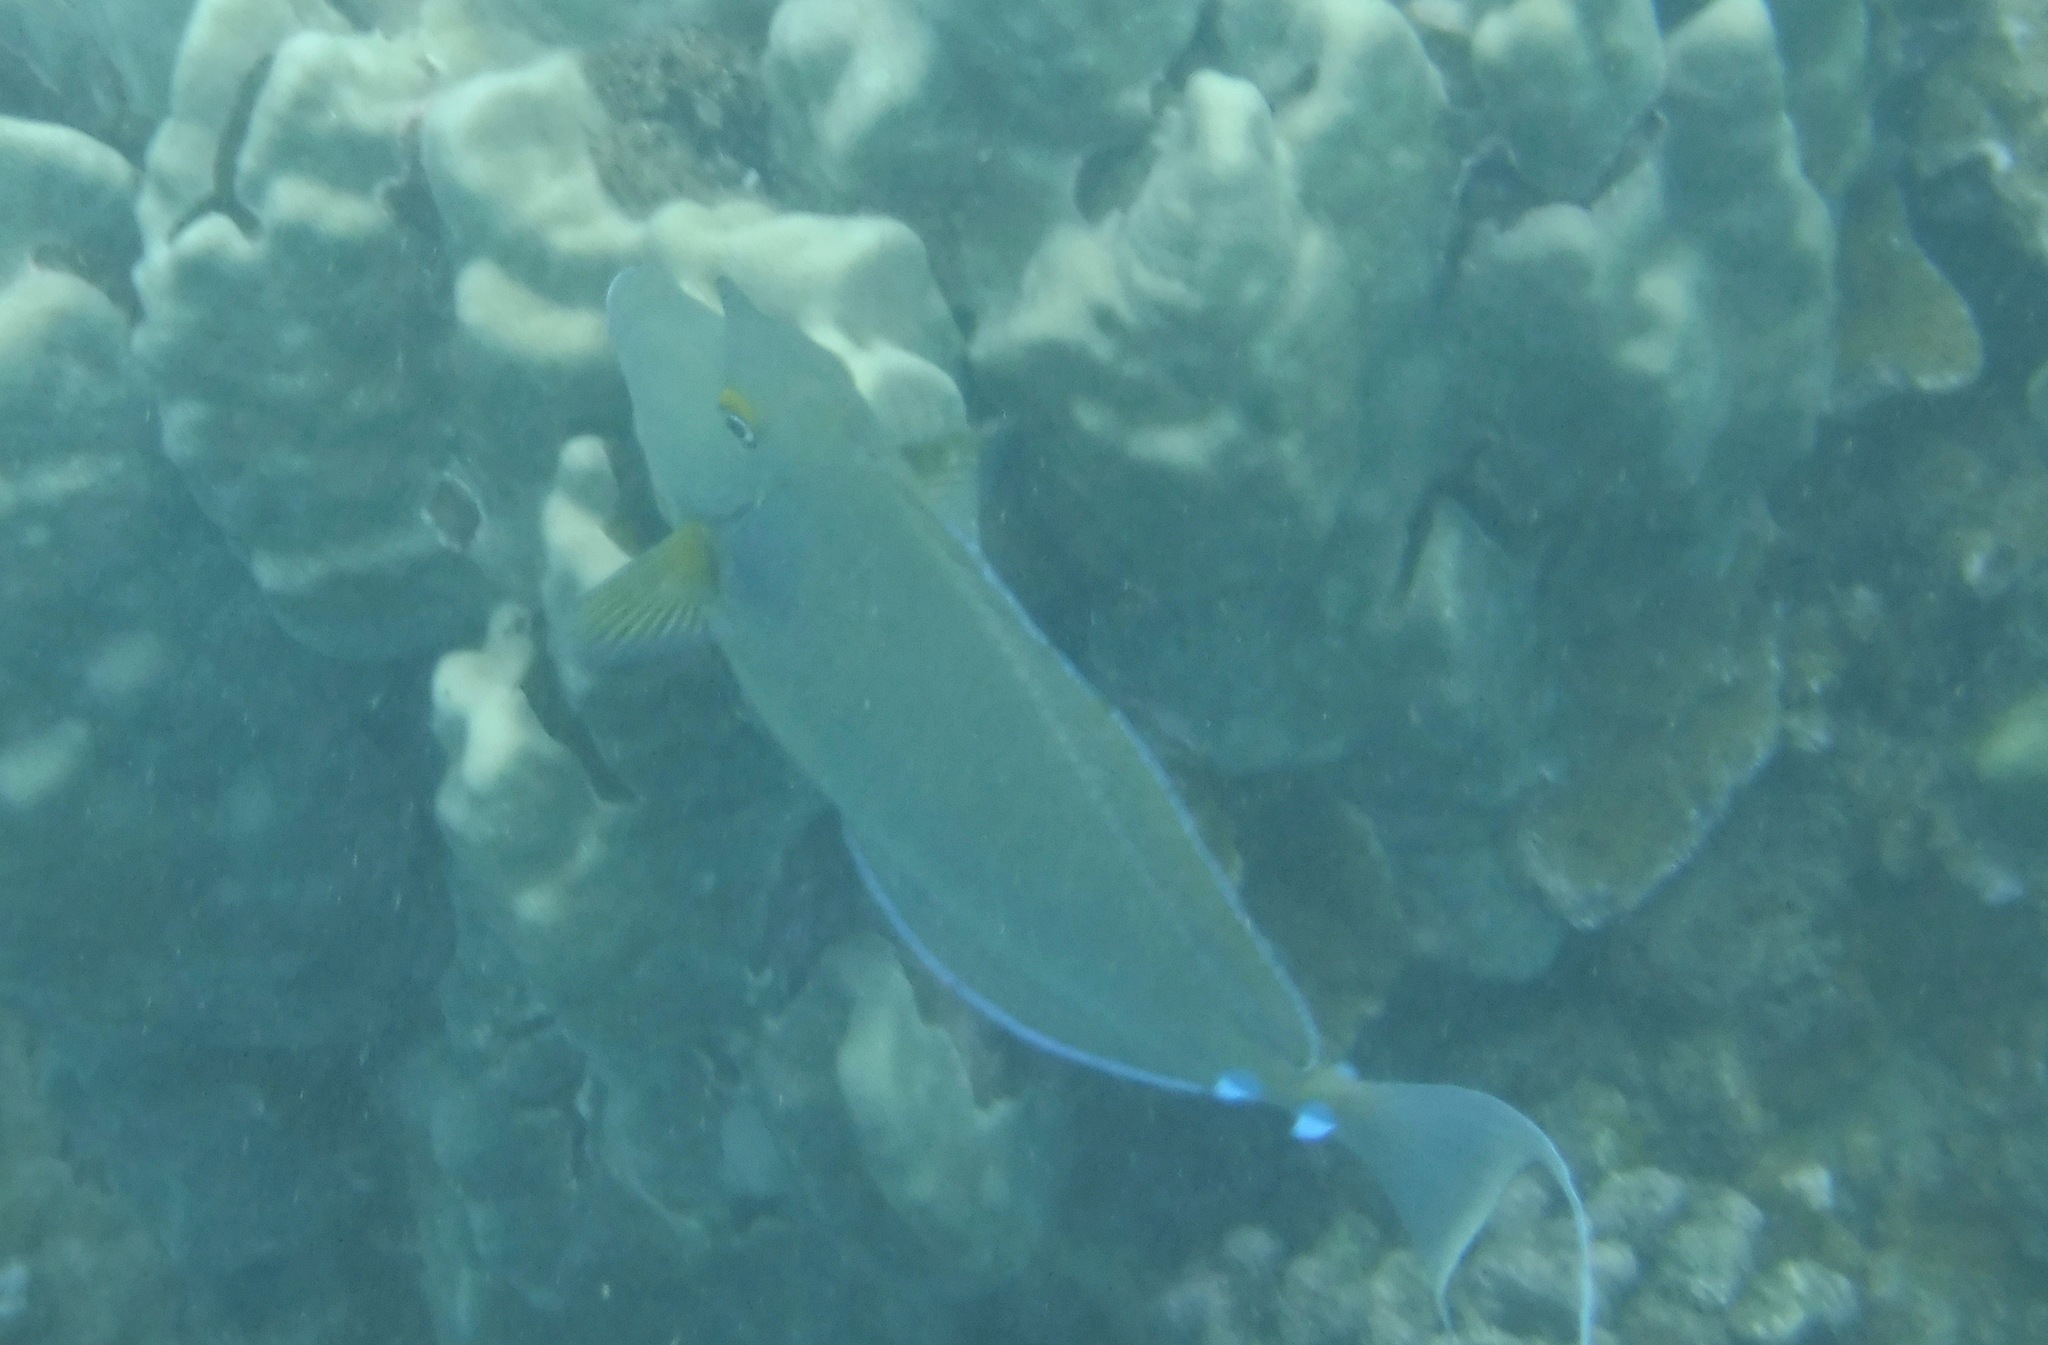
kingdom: Animalia
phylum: Chordata
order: Perciformes
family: Acanthuridae
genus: Naso
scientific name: Naso unicornis
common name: Bluespine unicornfish
